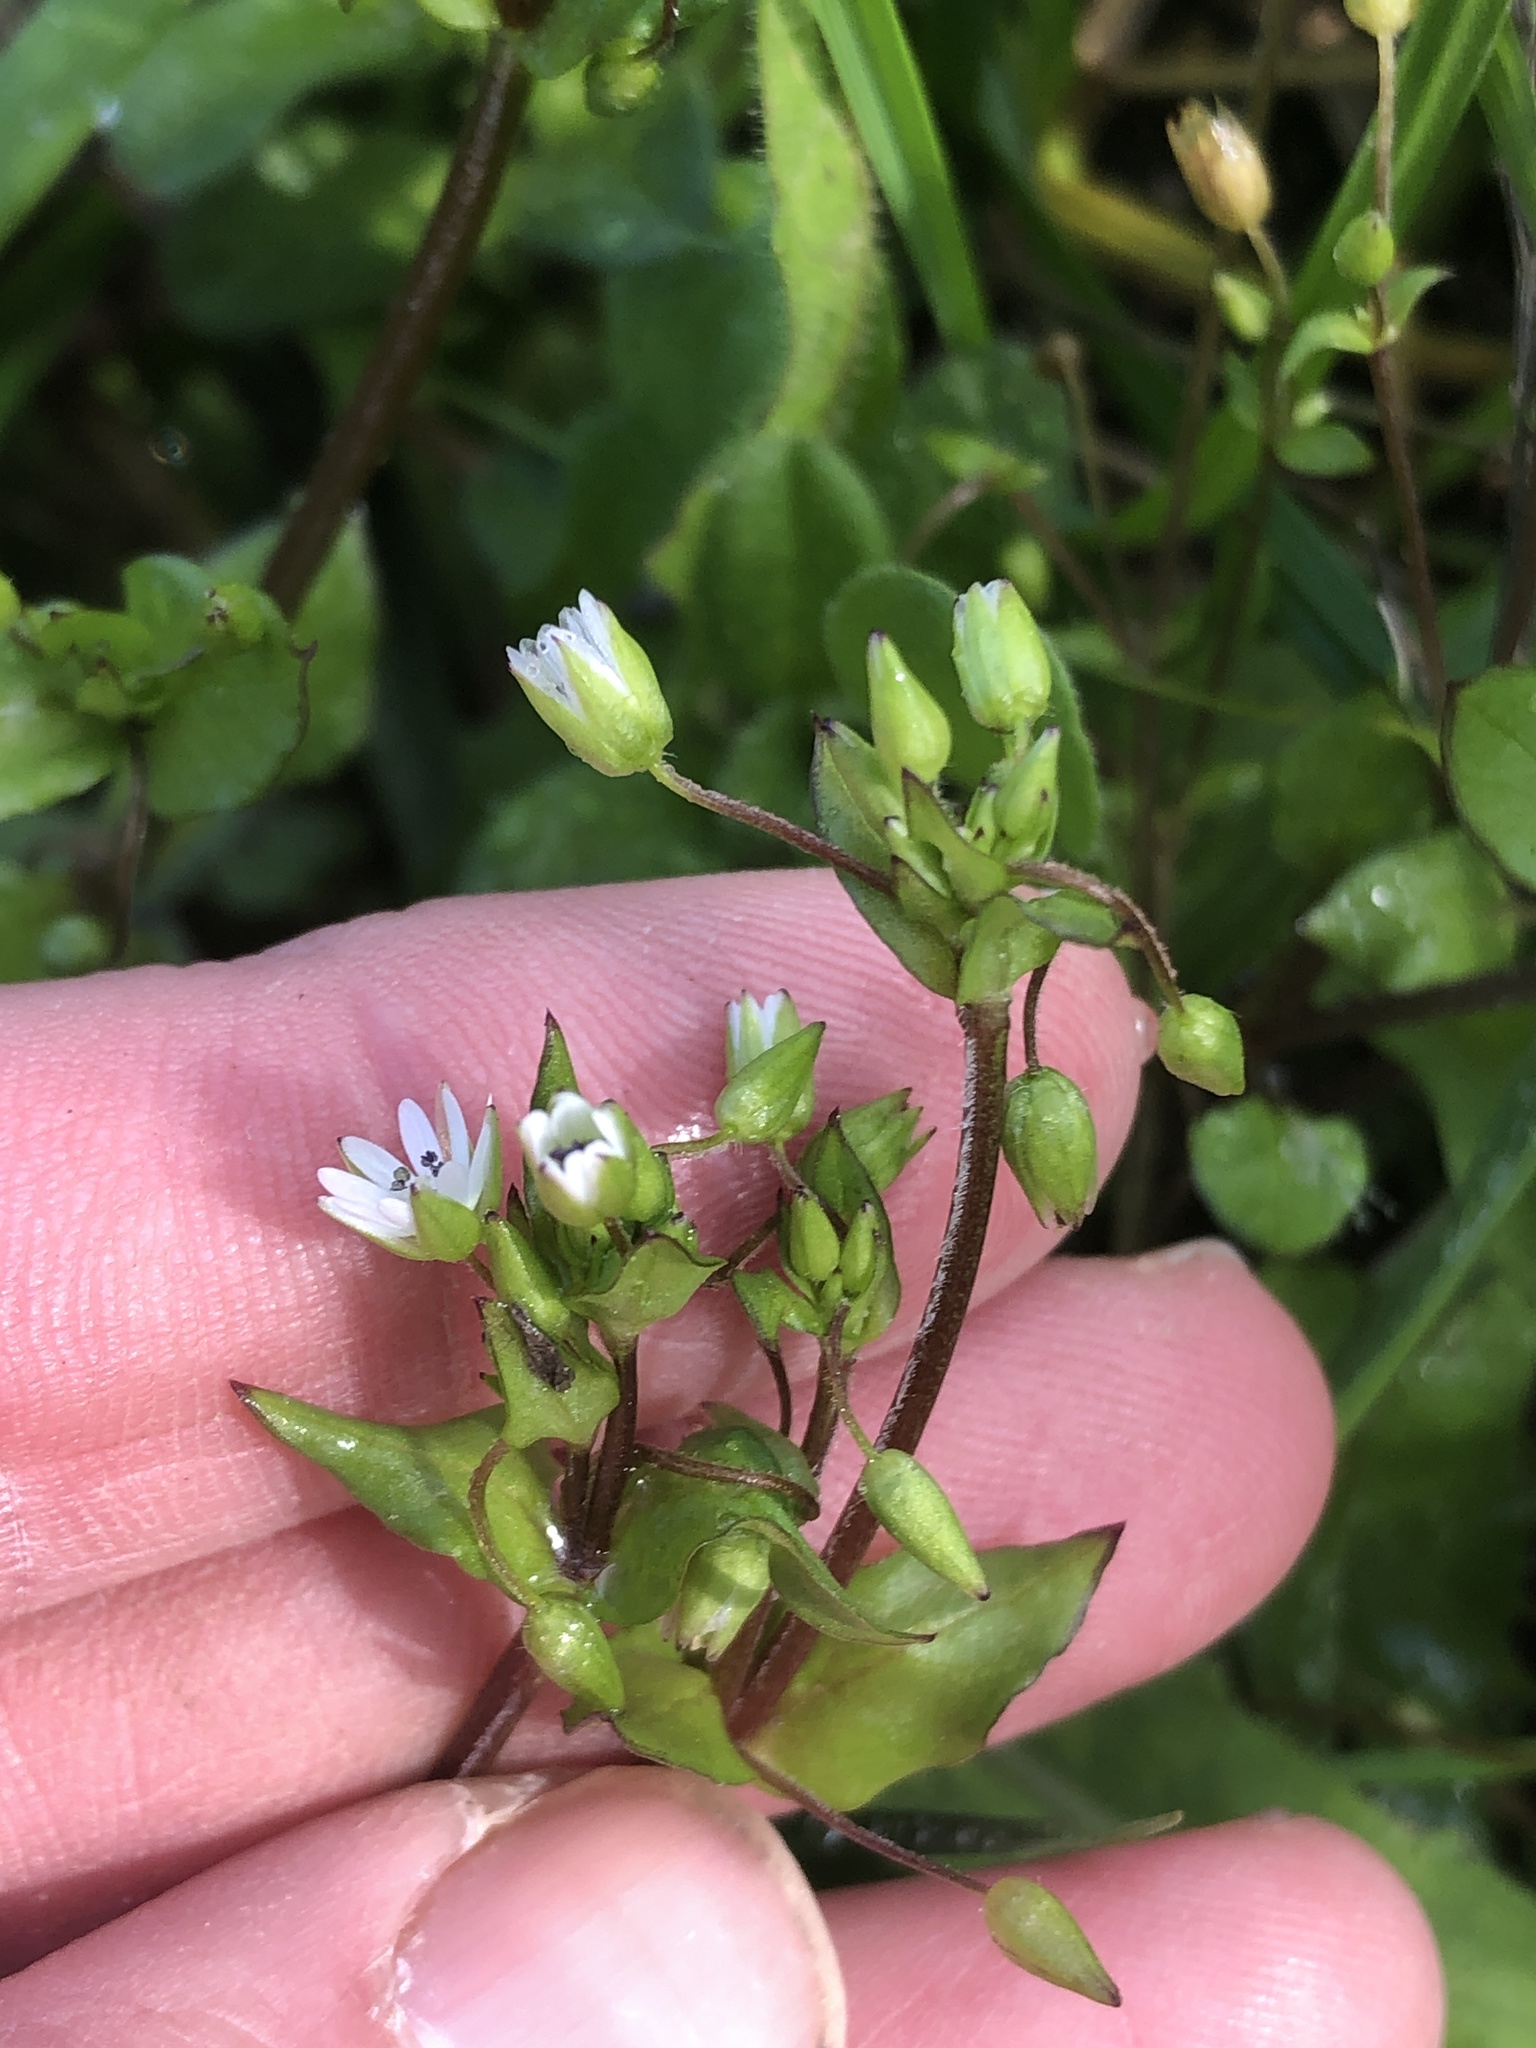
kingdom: Plantae
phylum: Tracheophyta
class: Magnoliopsida
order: Caryophyllales
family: Caryophyllaceae
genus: Stellaria
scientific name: Stellaria media
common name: Common chickweed
